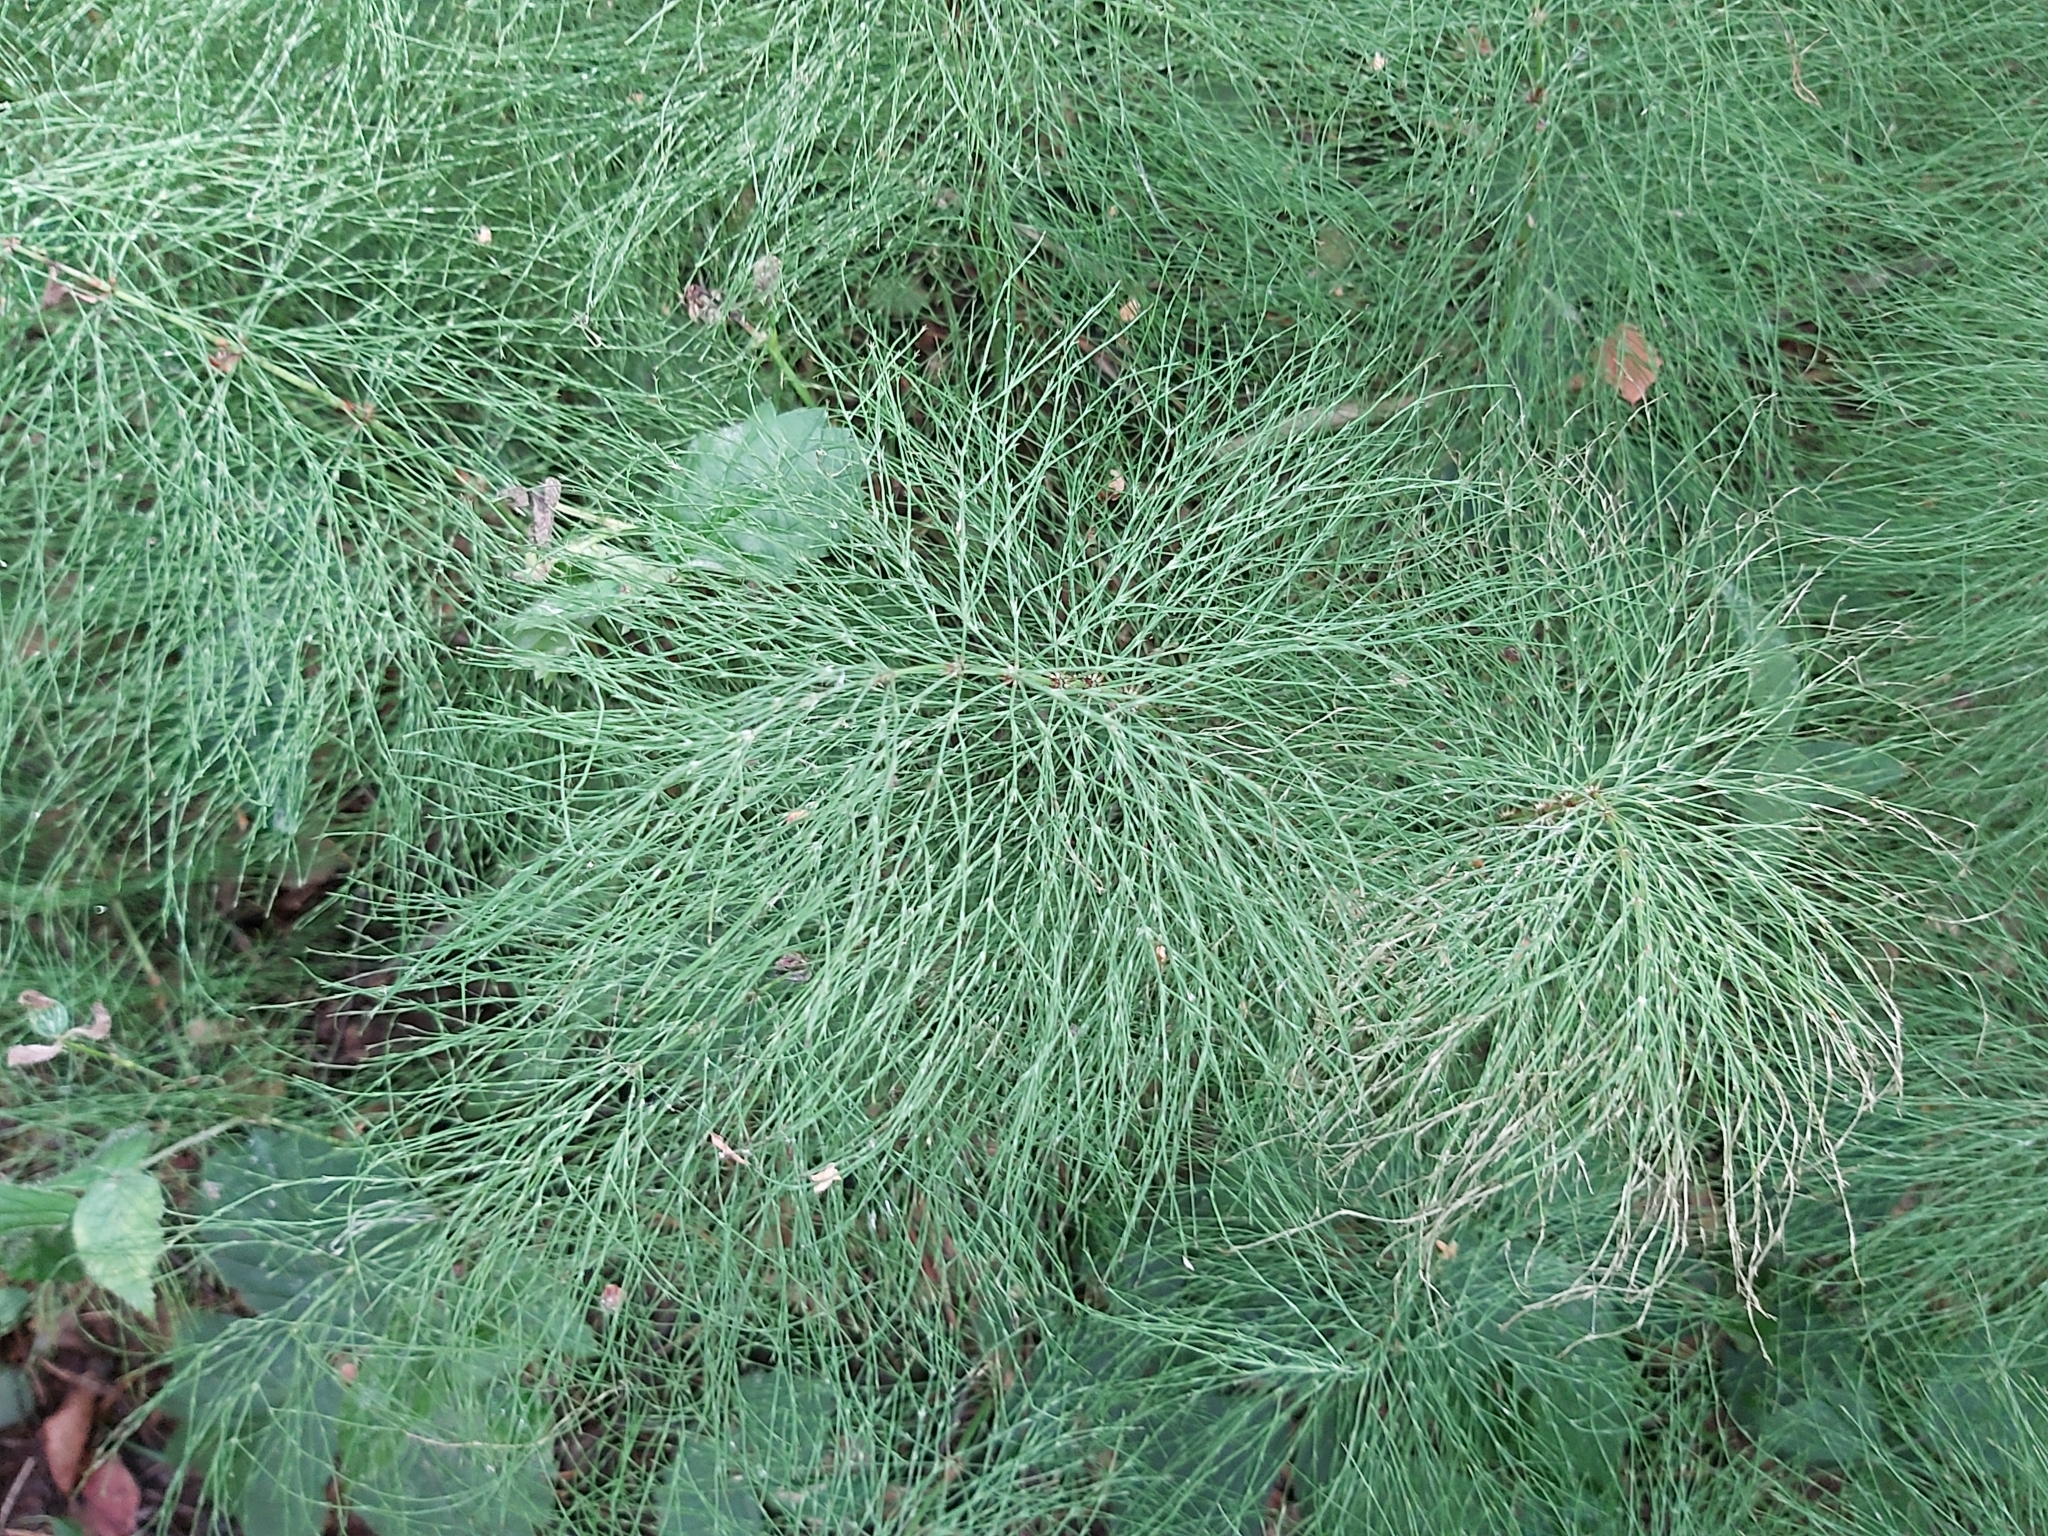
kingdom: Plantae
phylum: Tracheophyta
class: Polypodiopsida
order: Equisetales
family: Equisetaceae
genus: Equisetum
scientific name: Equisetum sylvaticum
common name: Wood horsetail
